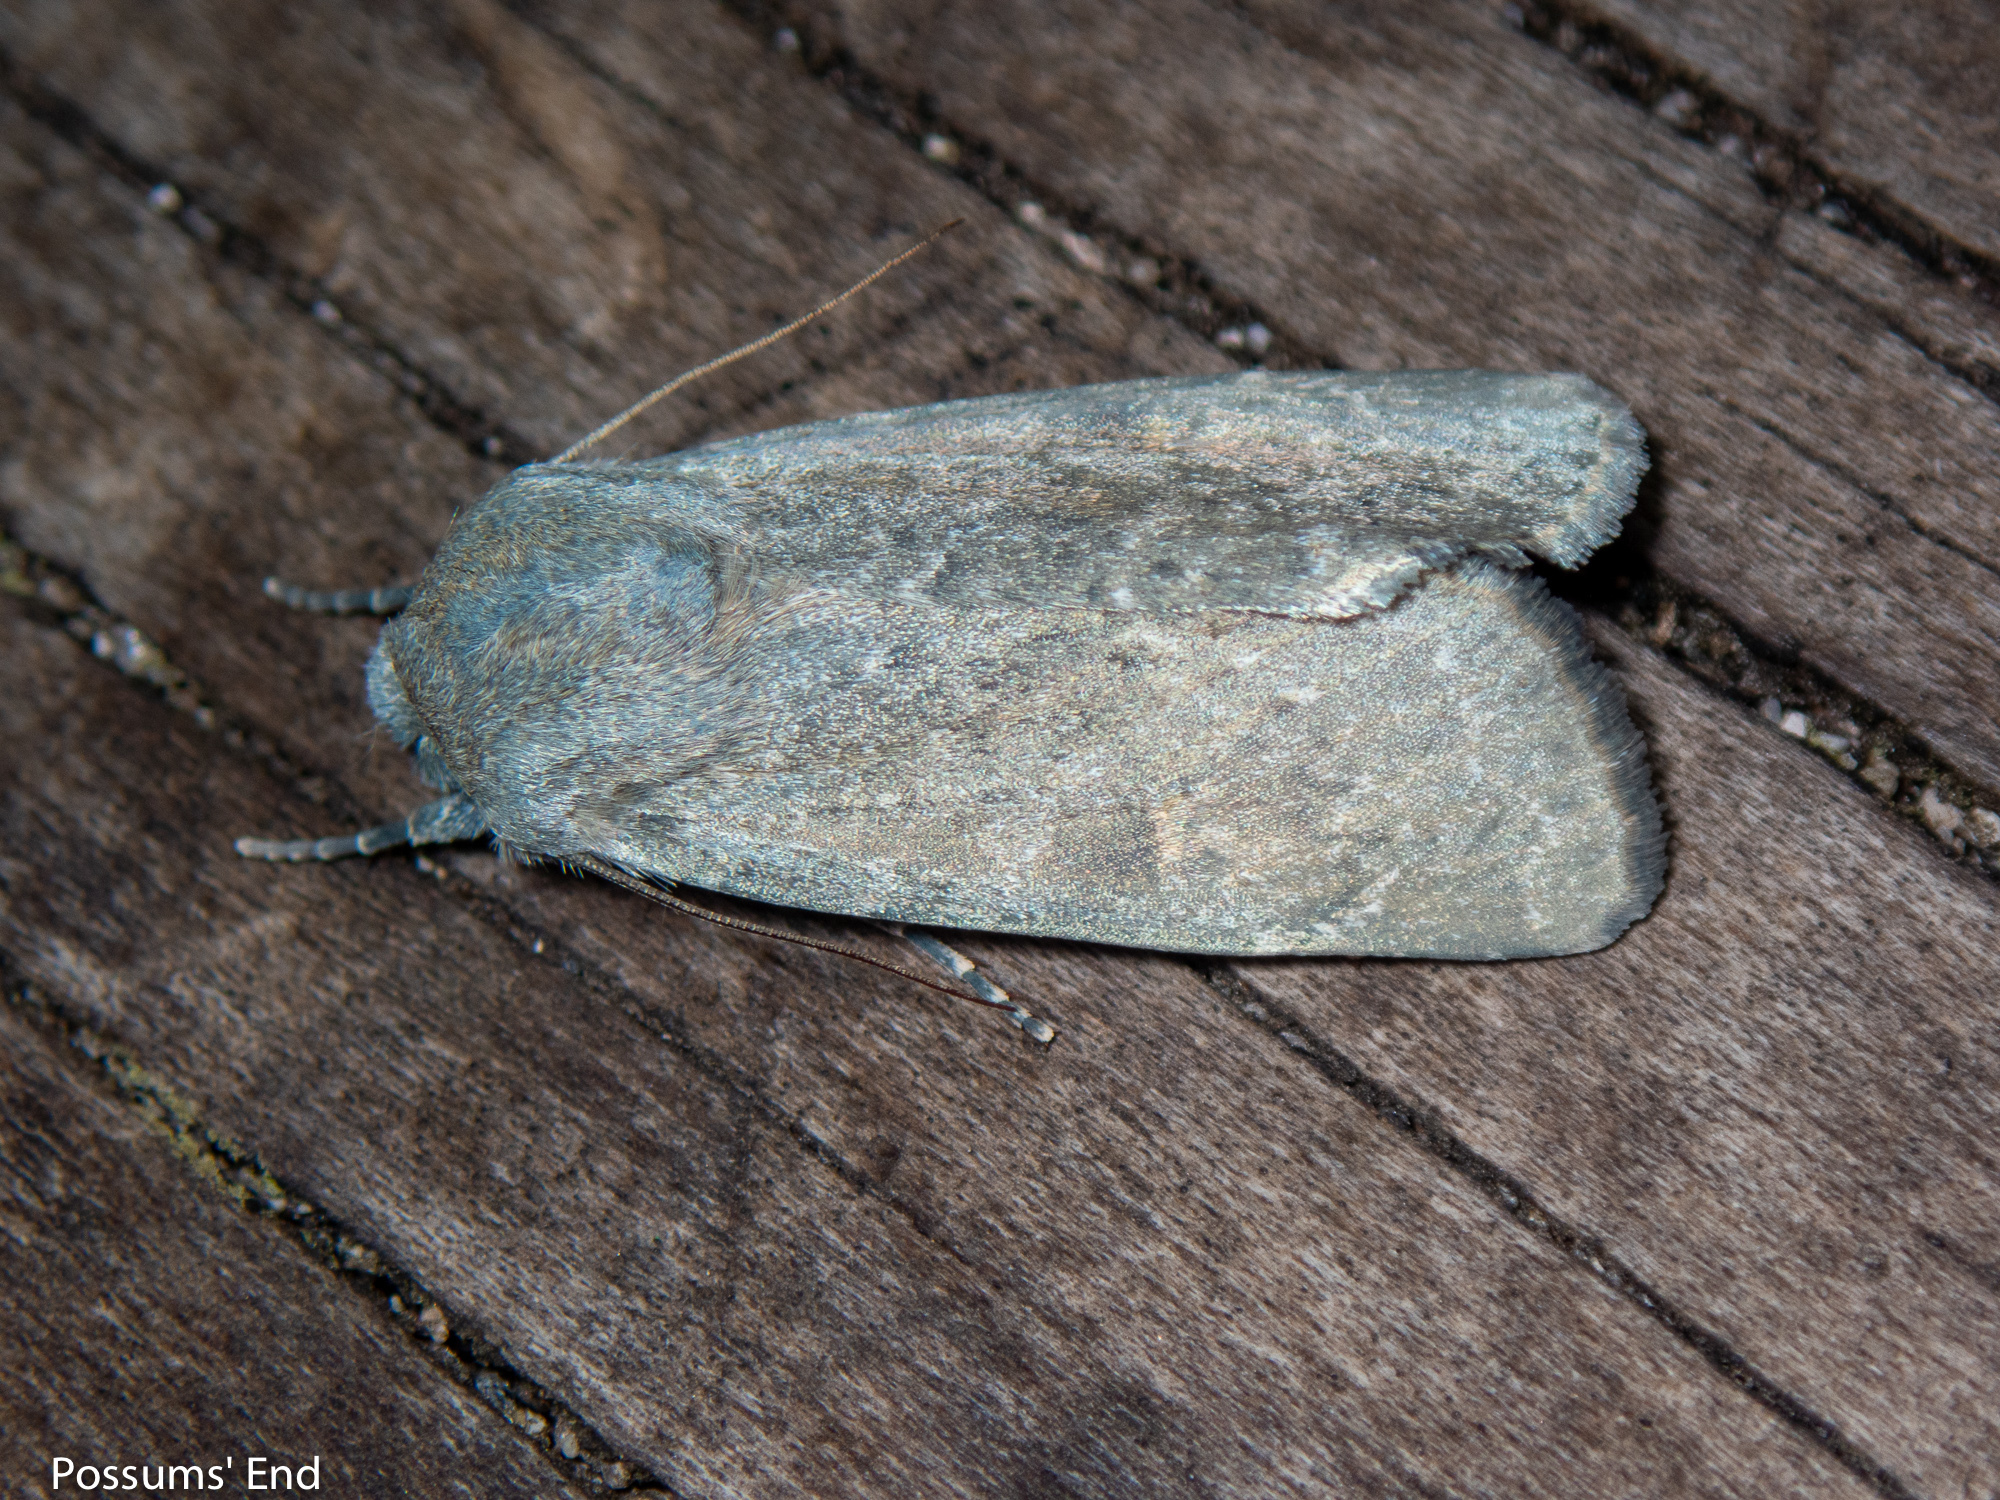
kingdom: Animalia
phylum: Arthropoda
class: Insecta
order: Lepidoptera
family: Noctuidae
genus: Ichneutica
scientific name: Ichneutica
